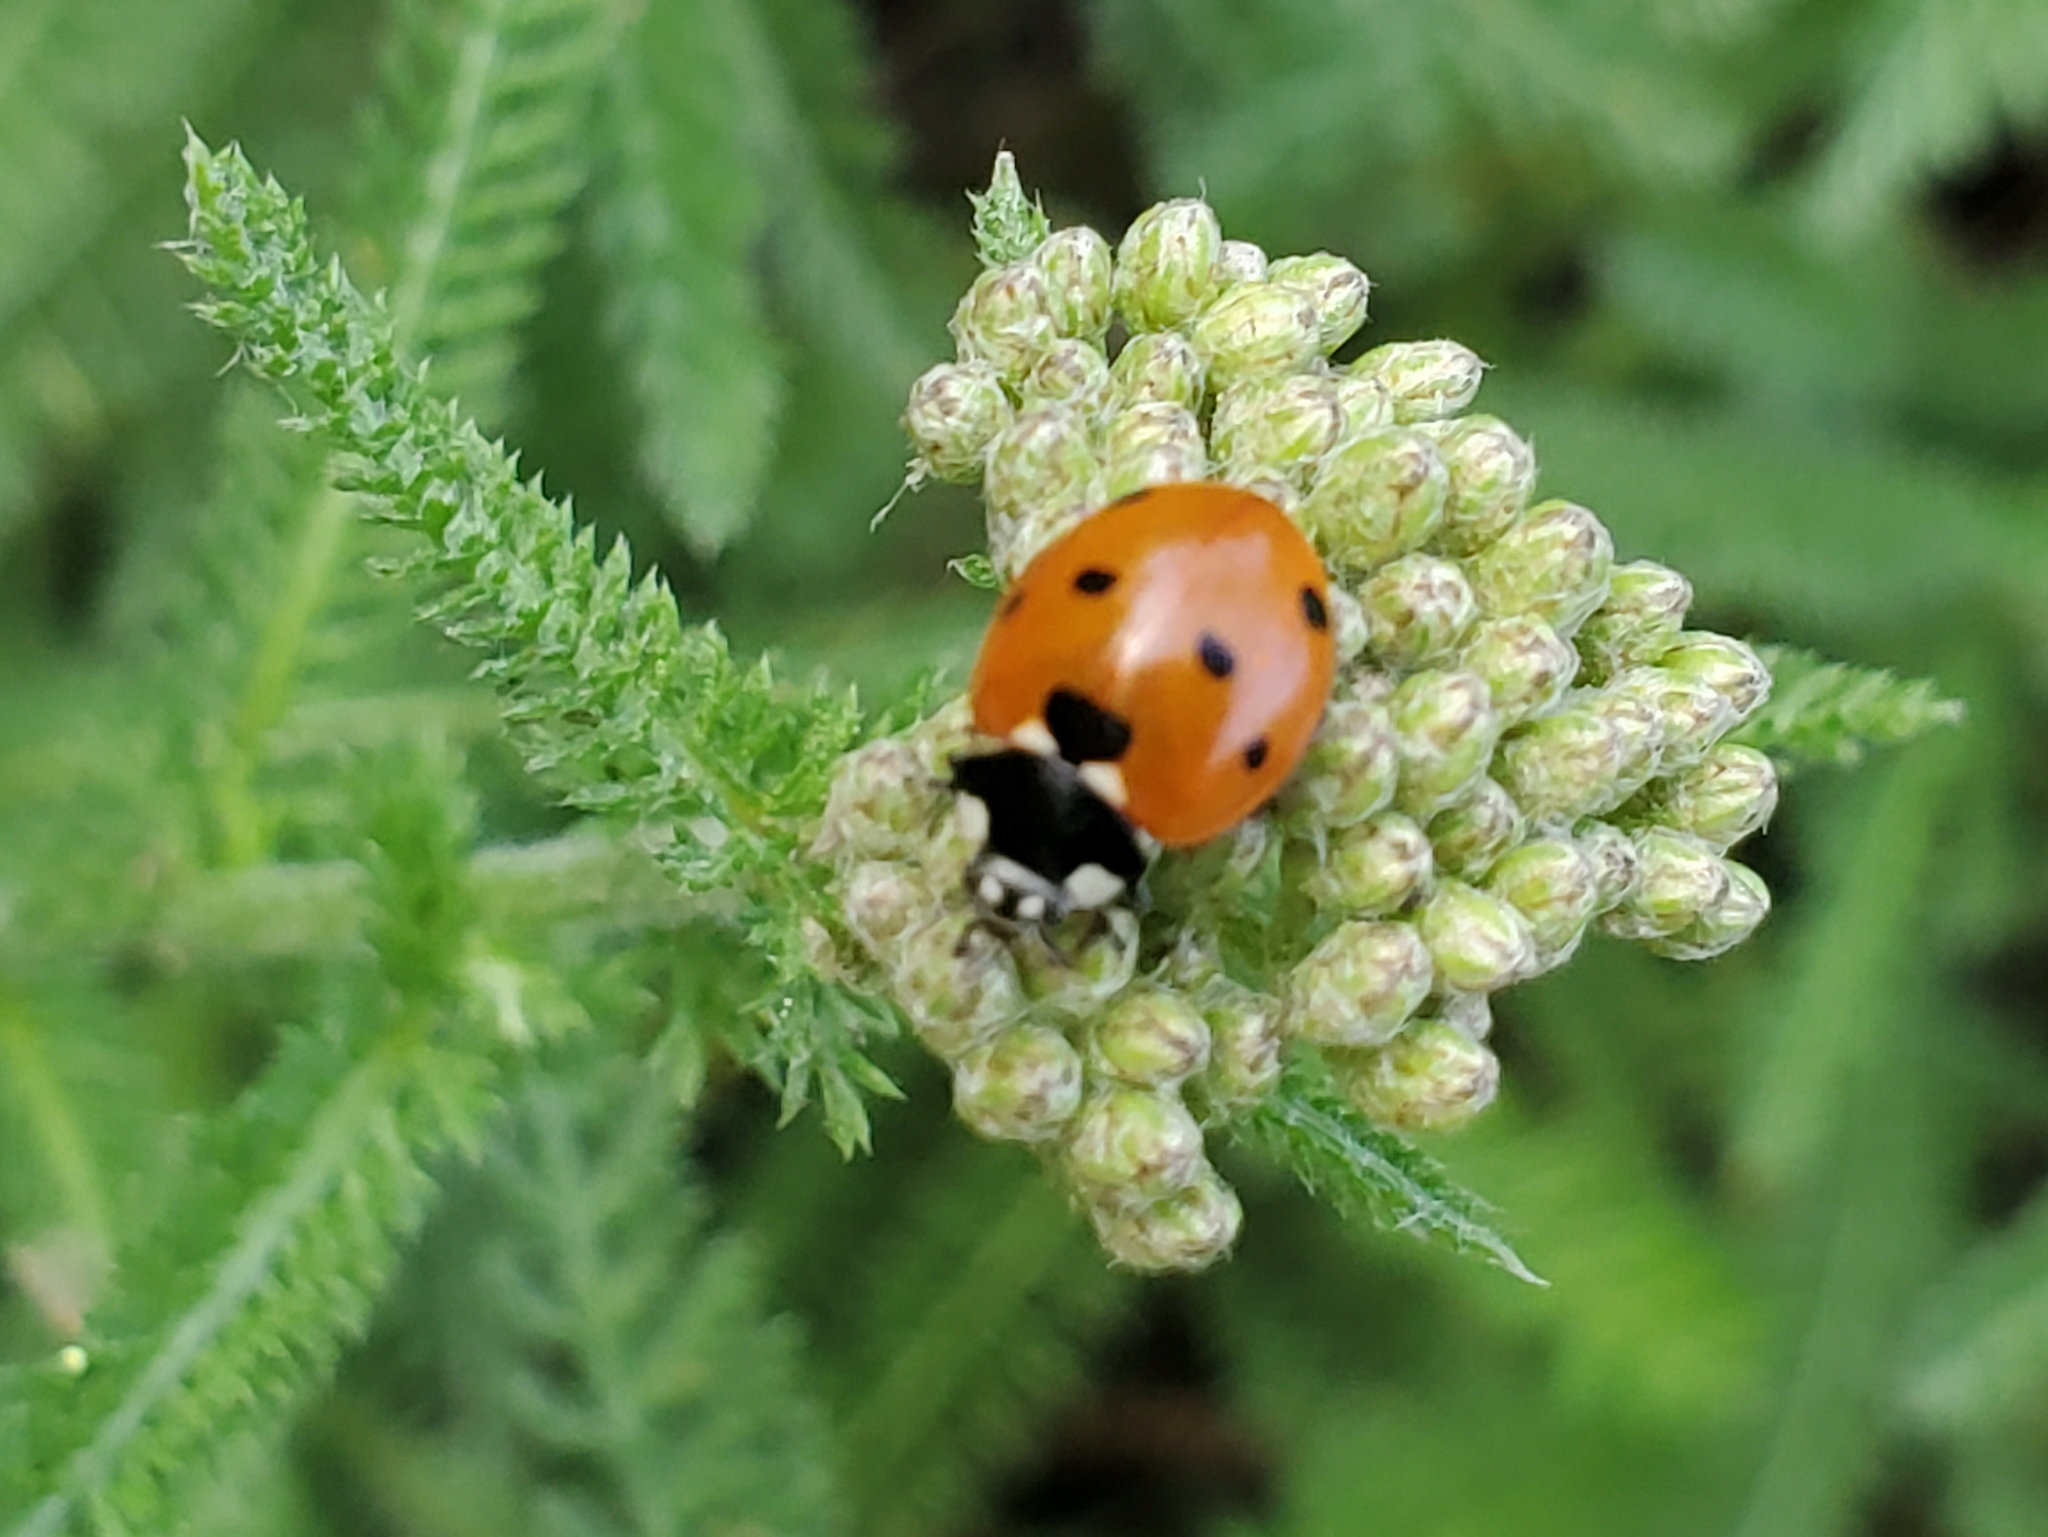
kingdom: Animalia
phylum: Arthropoda
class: Insecta
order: Coleoptera
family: Coccinellidae
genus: Coccinella
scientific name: Coccinella septempunctata
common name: Sevenspotted lady beetle
